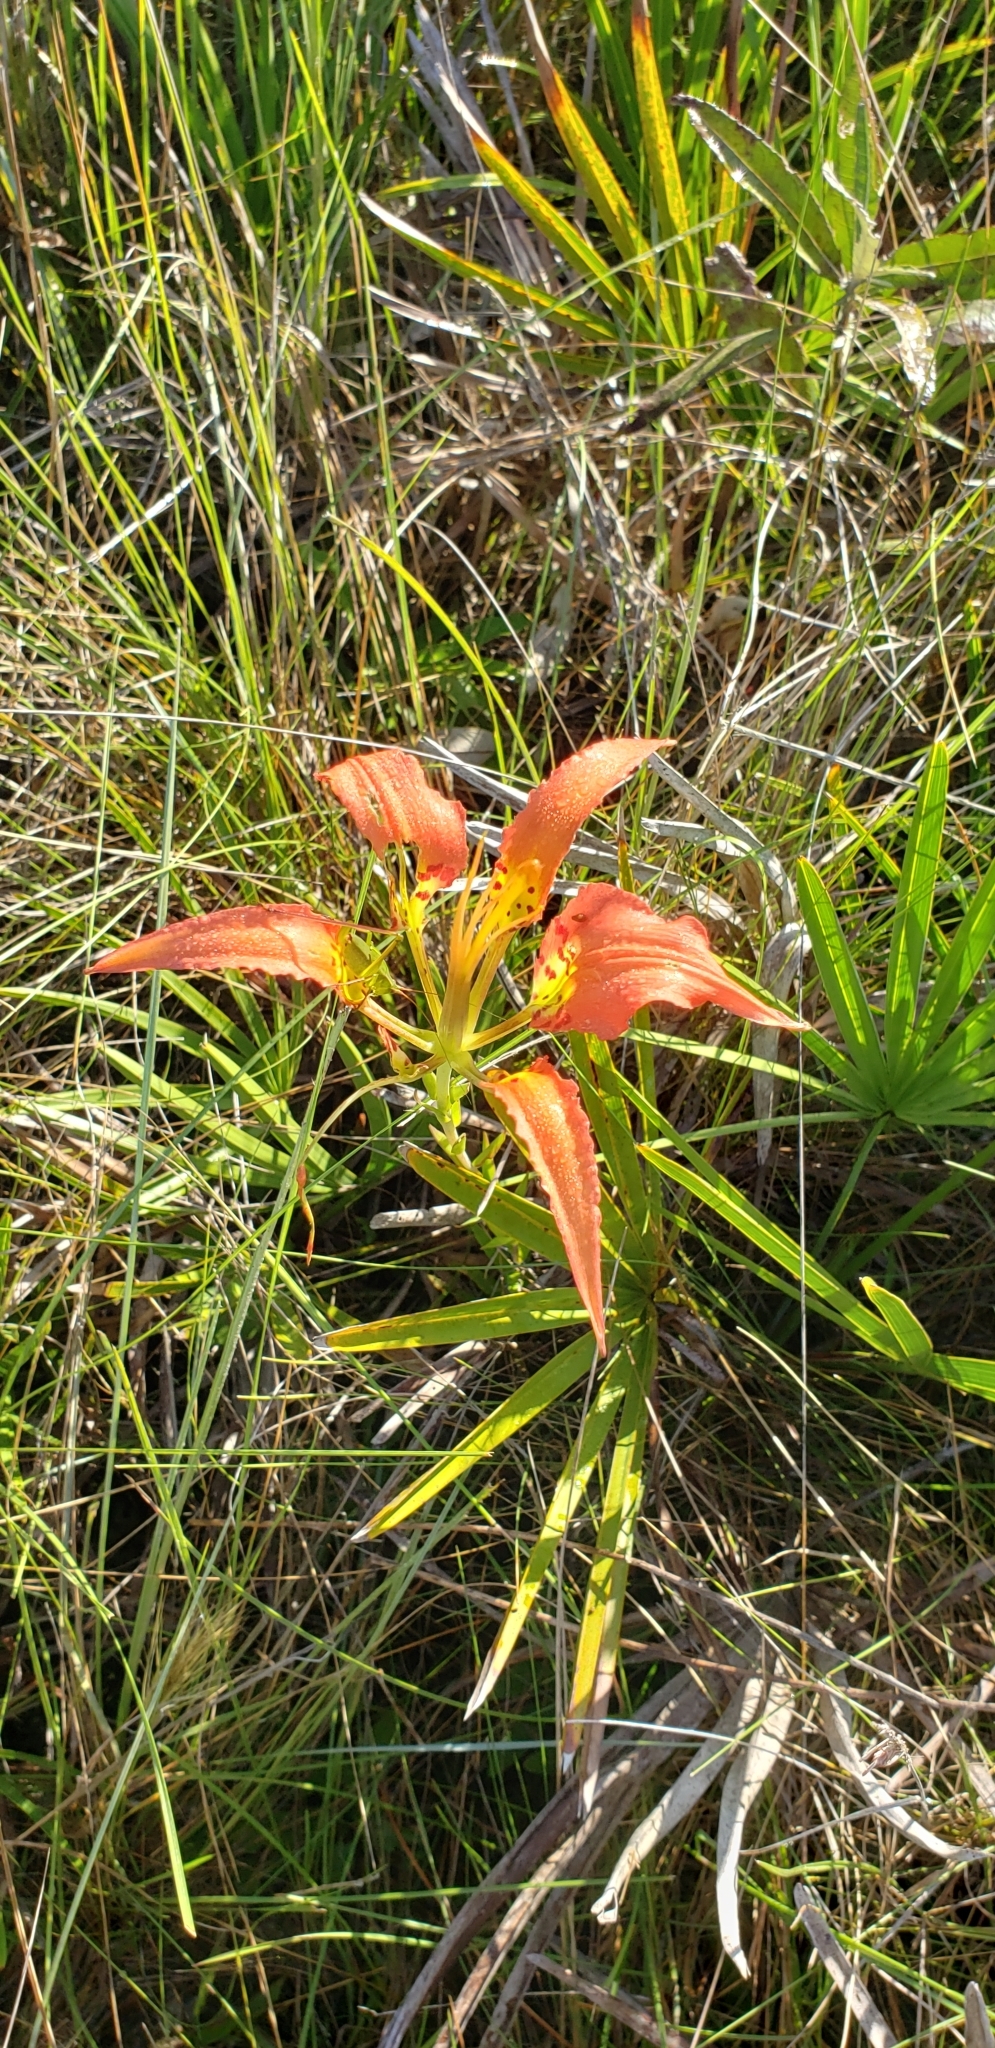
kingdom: Plantae
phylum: Tracheophyta
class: Liliopsida
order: Liliales
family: Liliaceae
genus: Lilium
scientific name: Lilium catesbaei
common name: Catesby's lily
